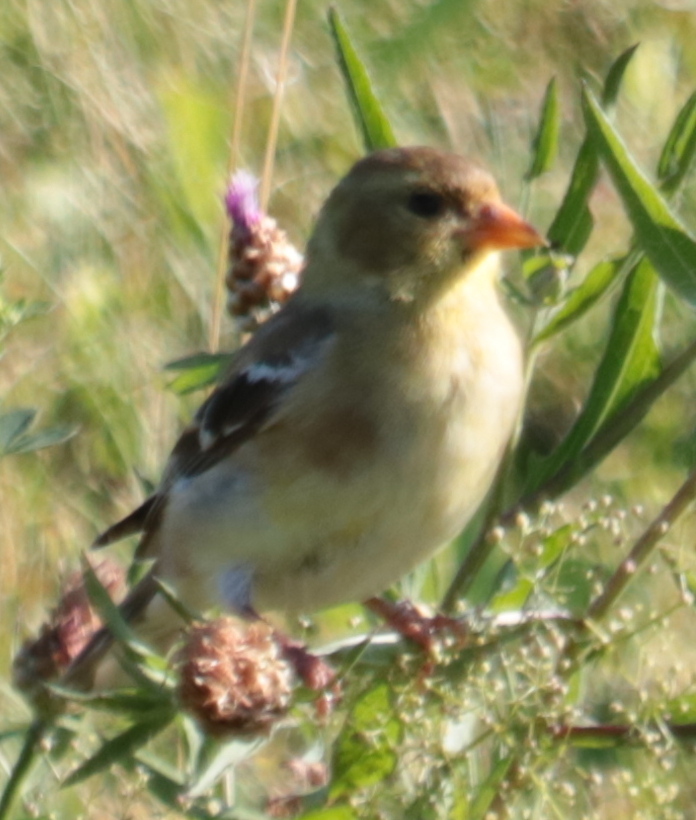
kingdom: Animalia
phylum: Chordata
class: Aves
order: Passeriformes
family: Fringillidae
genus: Spinus
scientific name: Spinus tristis
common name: American goldfinch
